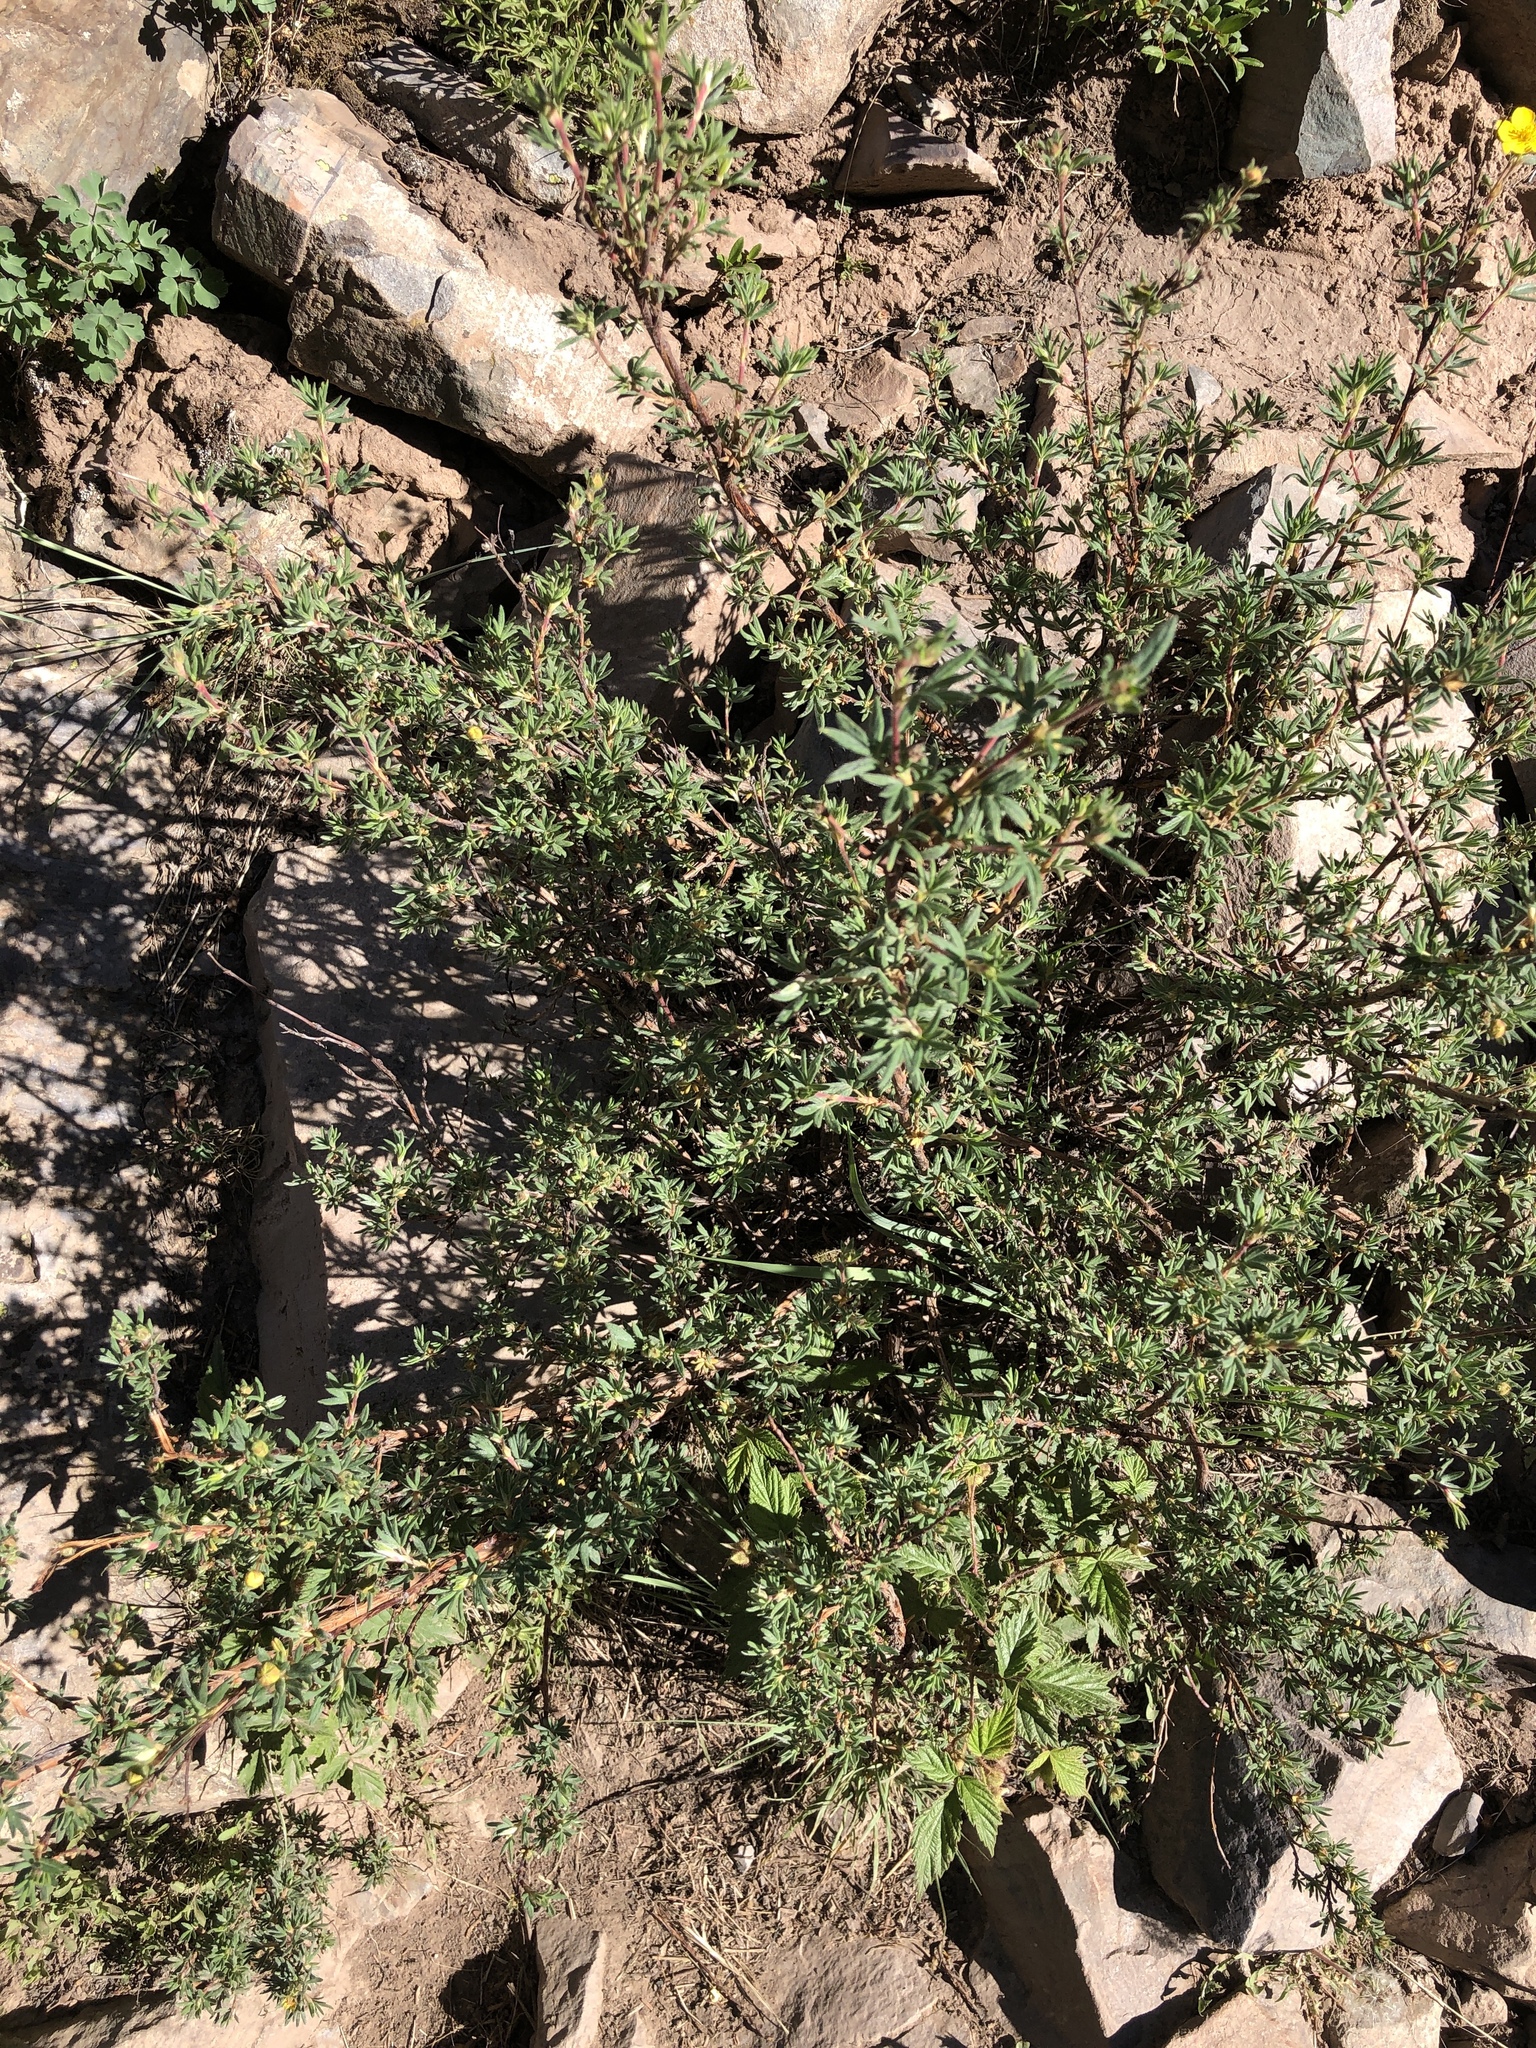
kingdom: Plantae
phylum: Tracheophyta
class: Magnoliopsida
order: Rosales
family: Rosaceae
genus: Dasiphora
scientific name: Dasiphora fruticosa
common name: Shrubby cinquefoil
